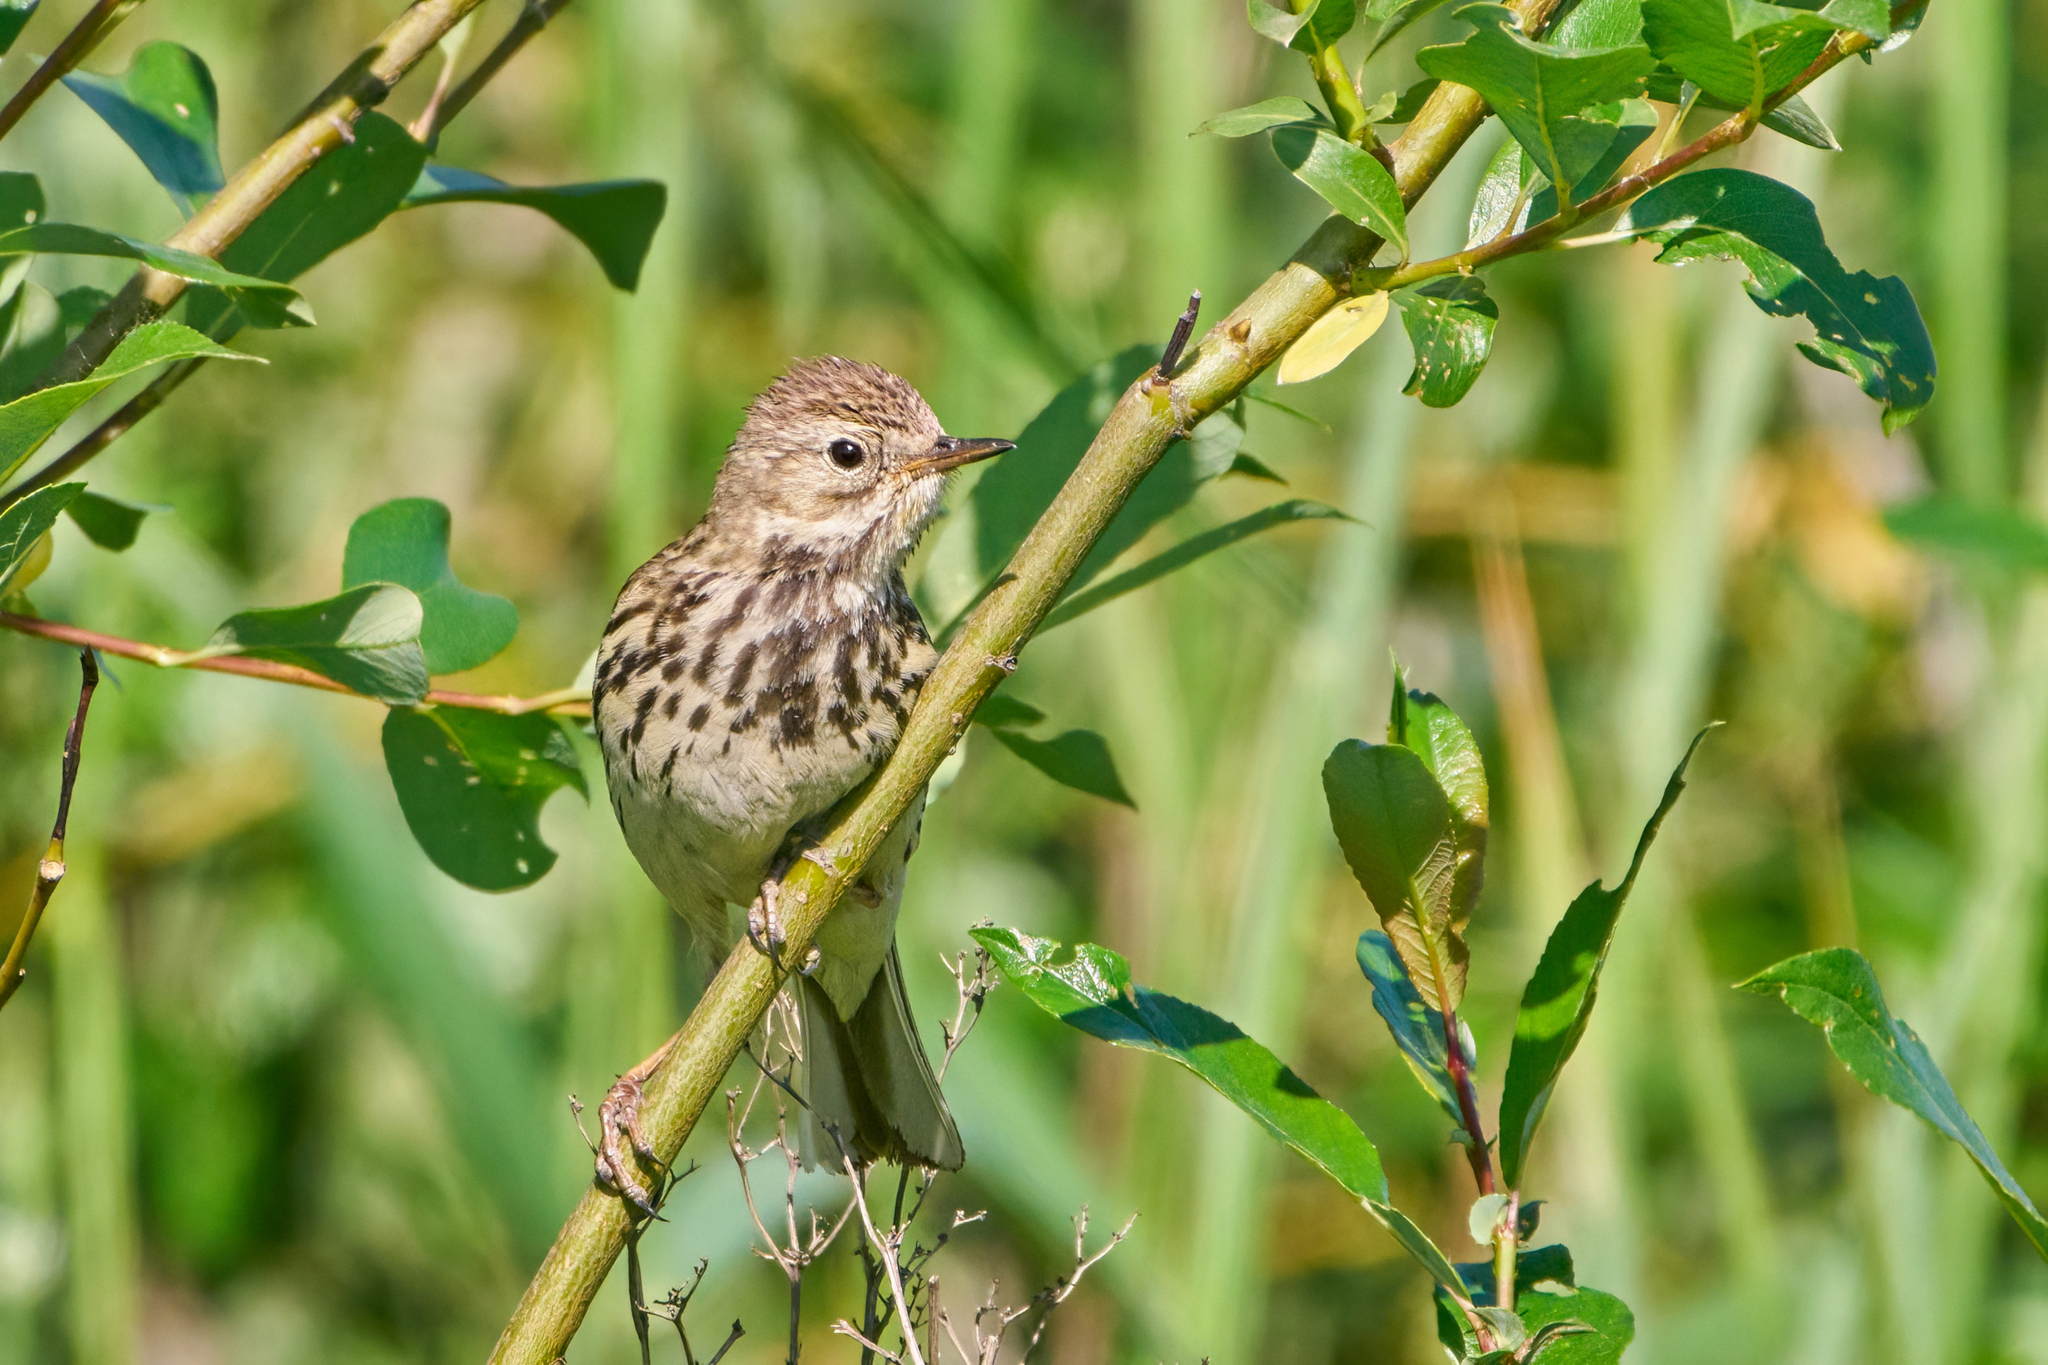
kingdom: Animalia
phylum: Chordata
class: Aves
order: Passeriformes
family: Motacillidae
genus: Anthus
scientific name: Anthus pratensis
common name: Meadow pipit
